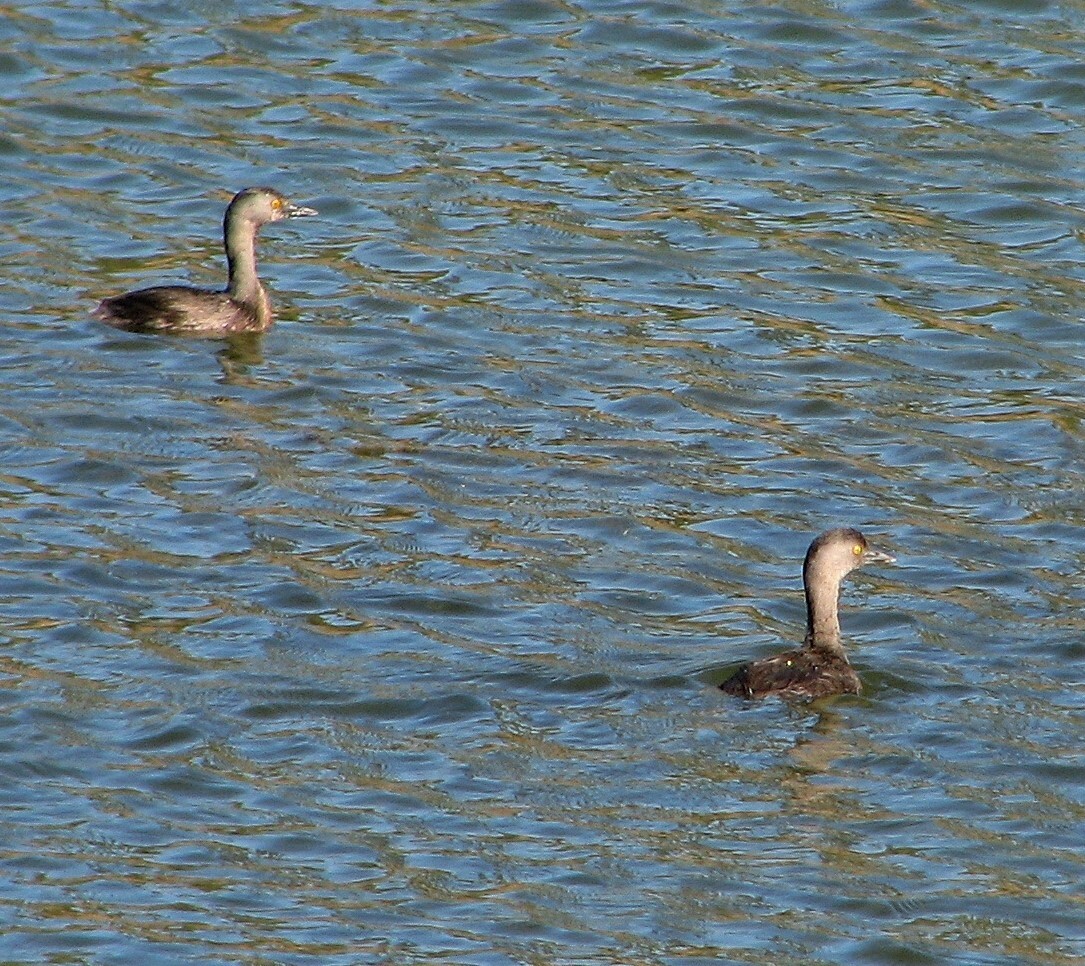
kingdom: Animalia
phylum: Chordata
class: Aves
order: Podicipediformes
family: Podicipedidae
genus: Tachybaptus
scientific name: Tachybaptus dominicus
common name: Least grebe
